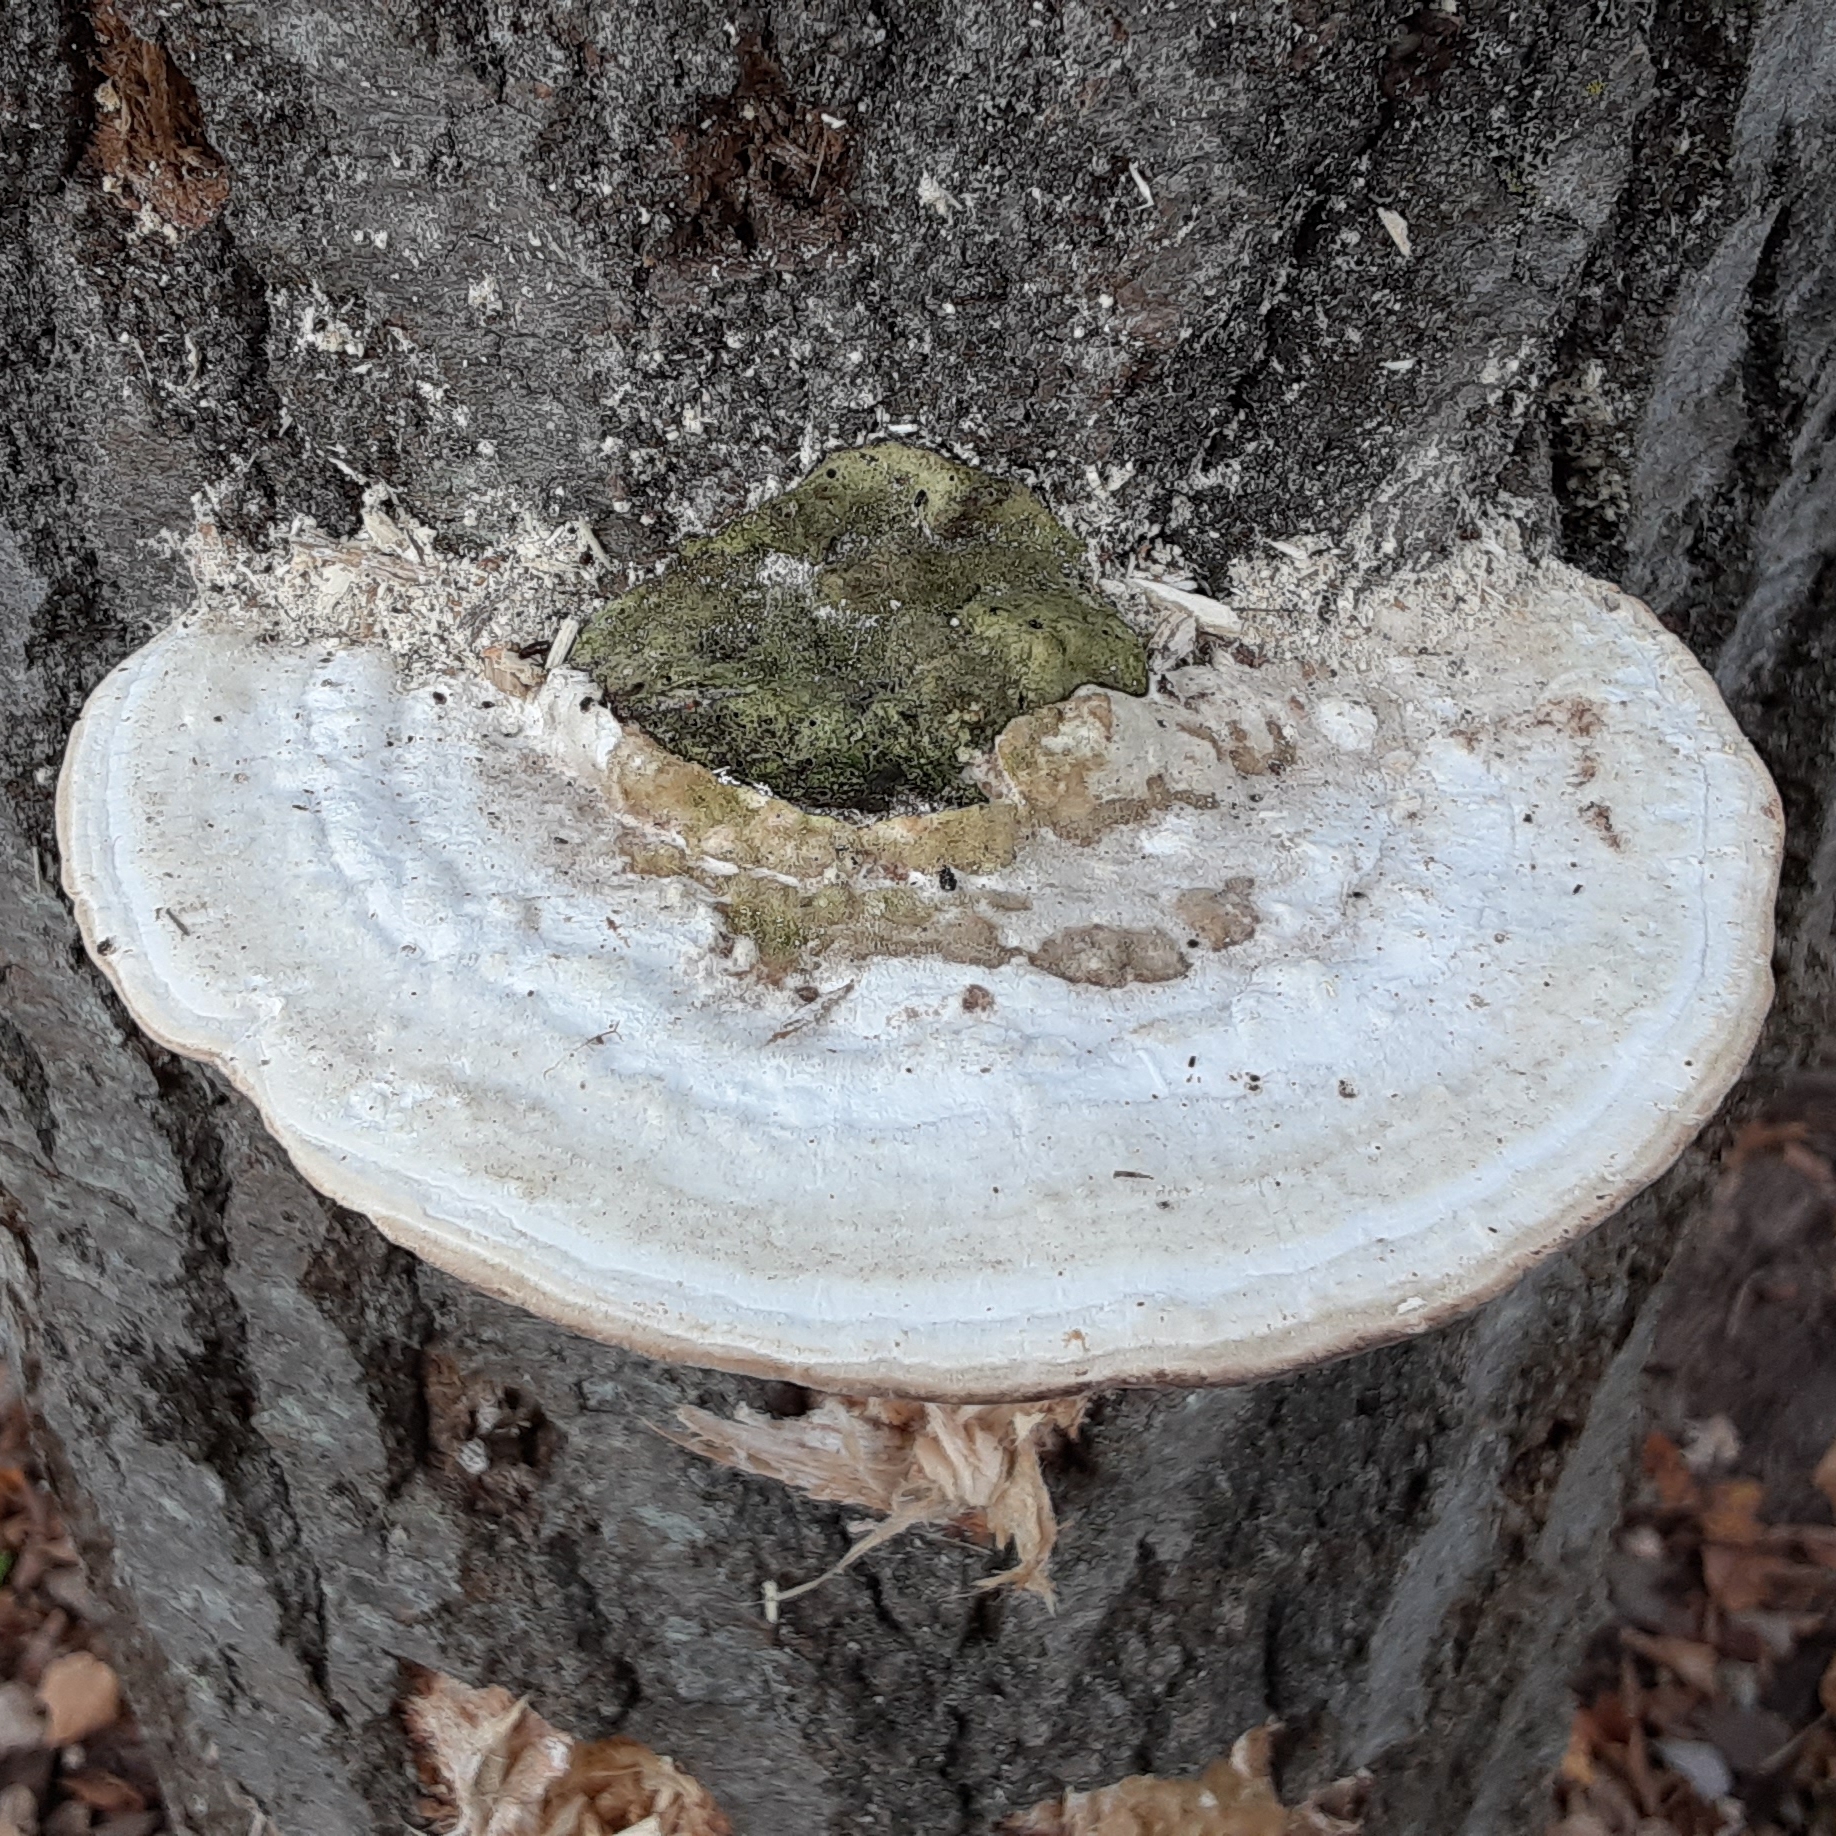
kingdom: Fungi
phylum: Basidiomycota
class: Agaricomycetes
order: Polyporales
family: Polyporaceae
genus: Trametes
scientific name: Trametes gibbosa
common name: Lumpy bracket
